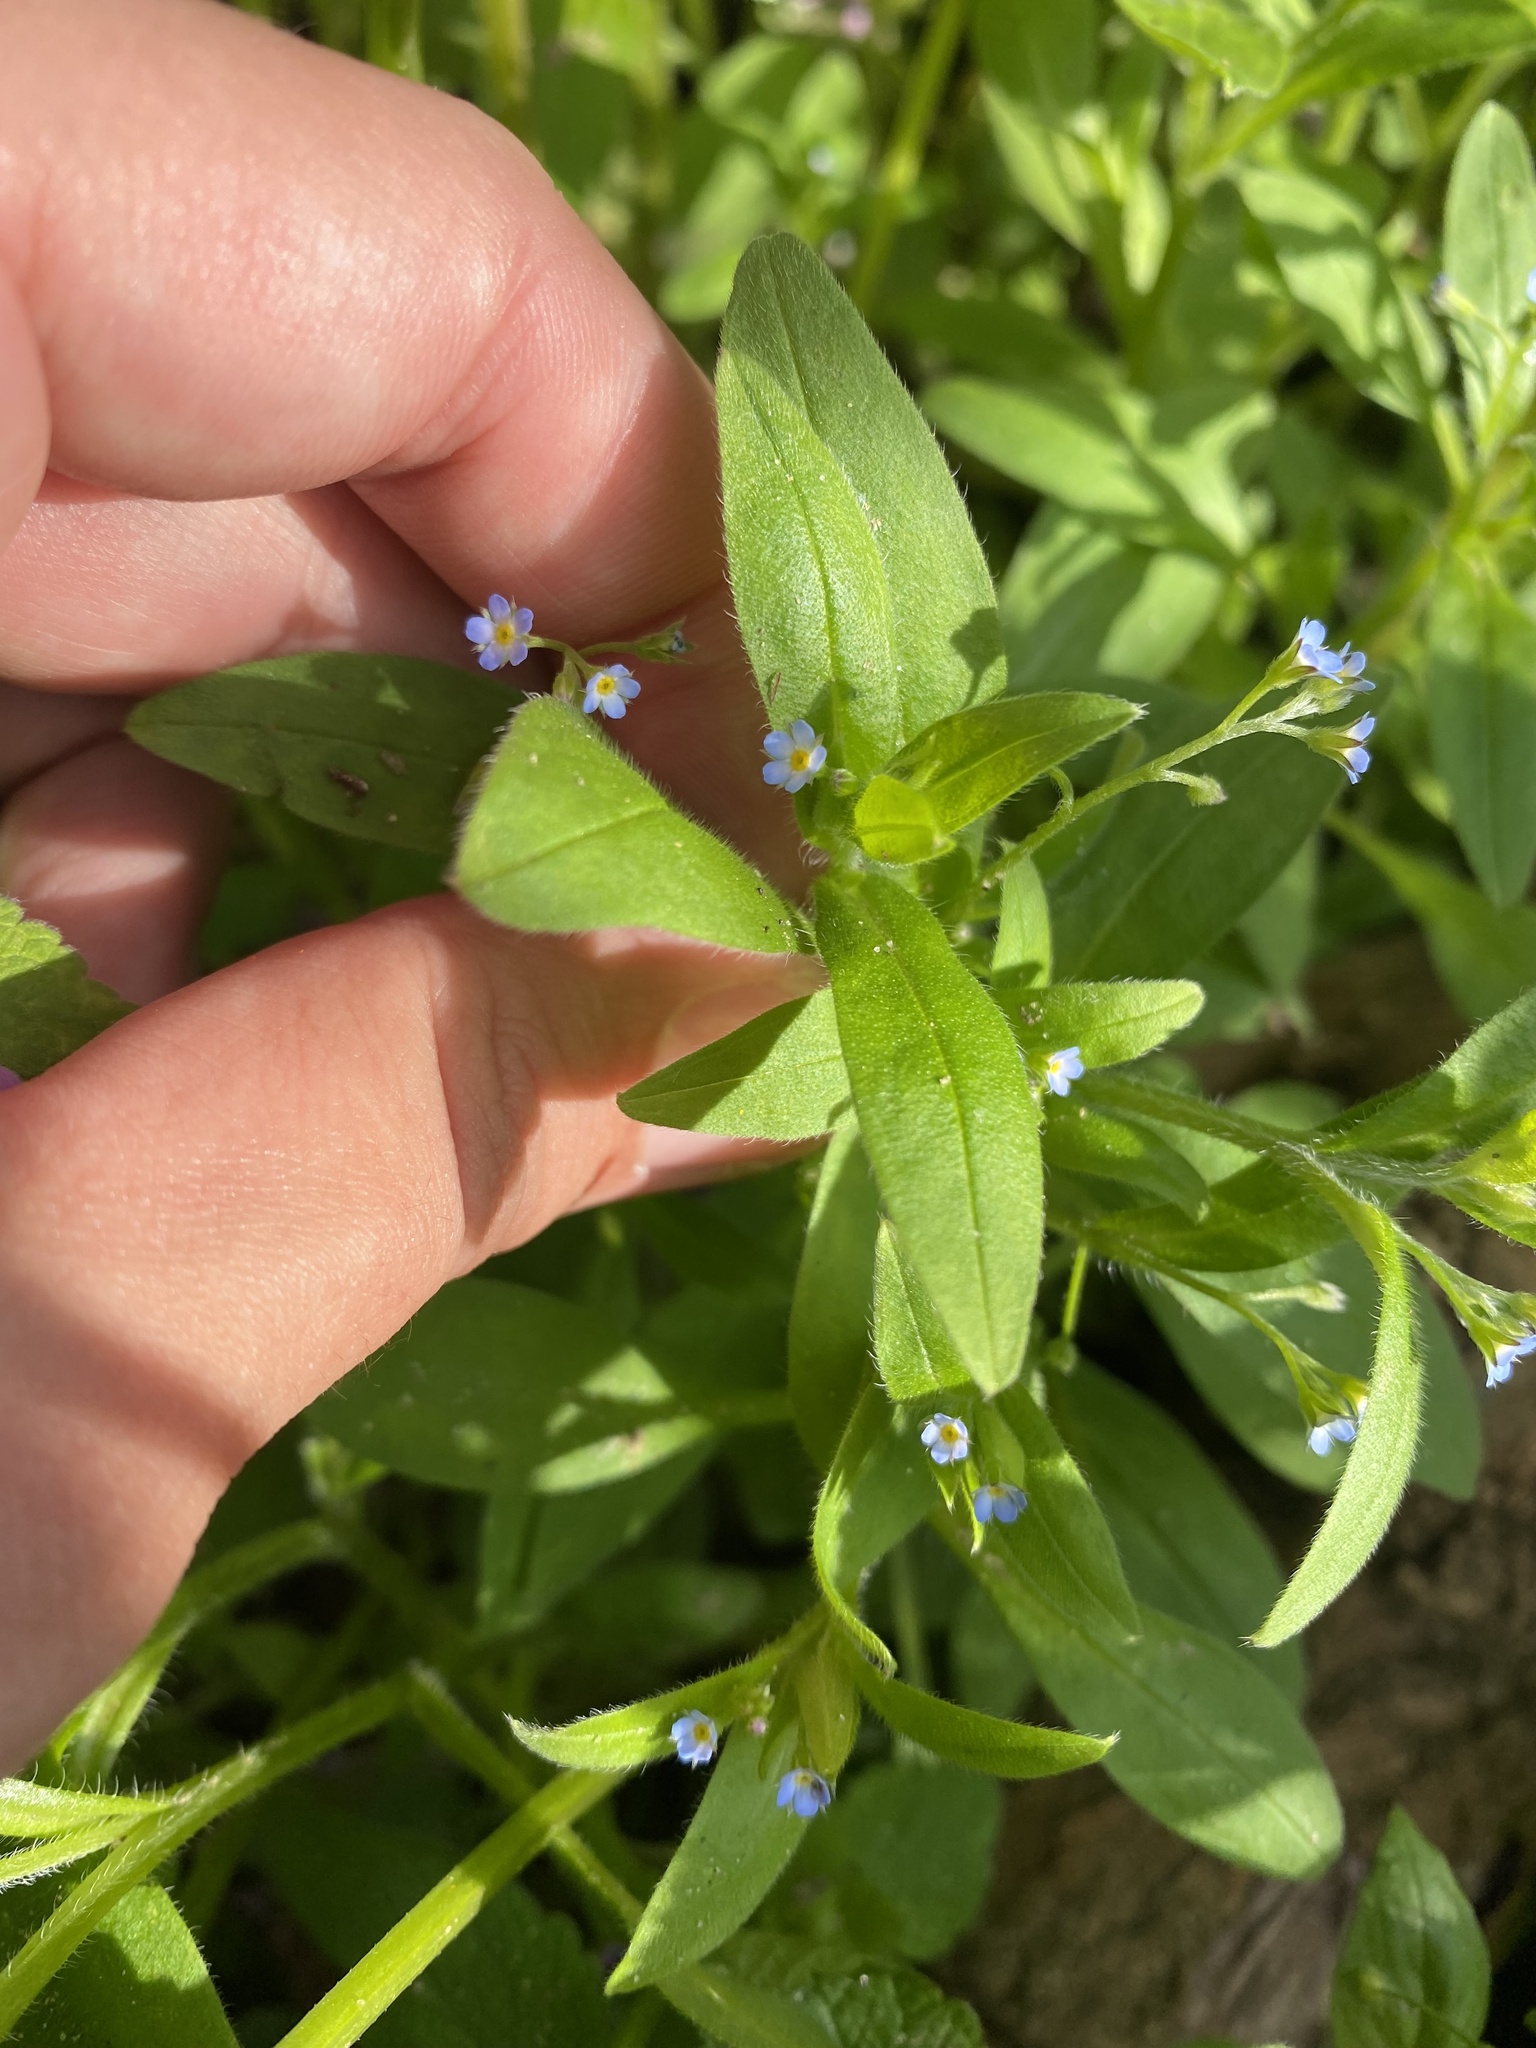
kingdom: Plantae
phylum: Tracheophyta
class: Magnoliopsida
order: Boraginales
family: Boraginaceae
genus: Myosotis
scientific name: Myosotis sparsiflora
